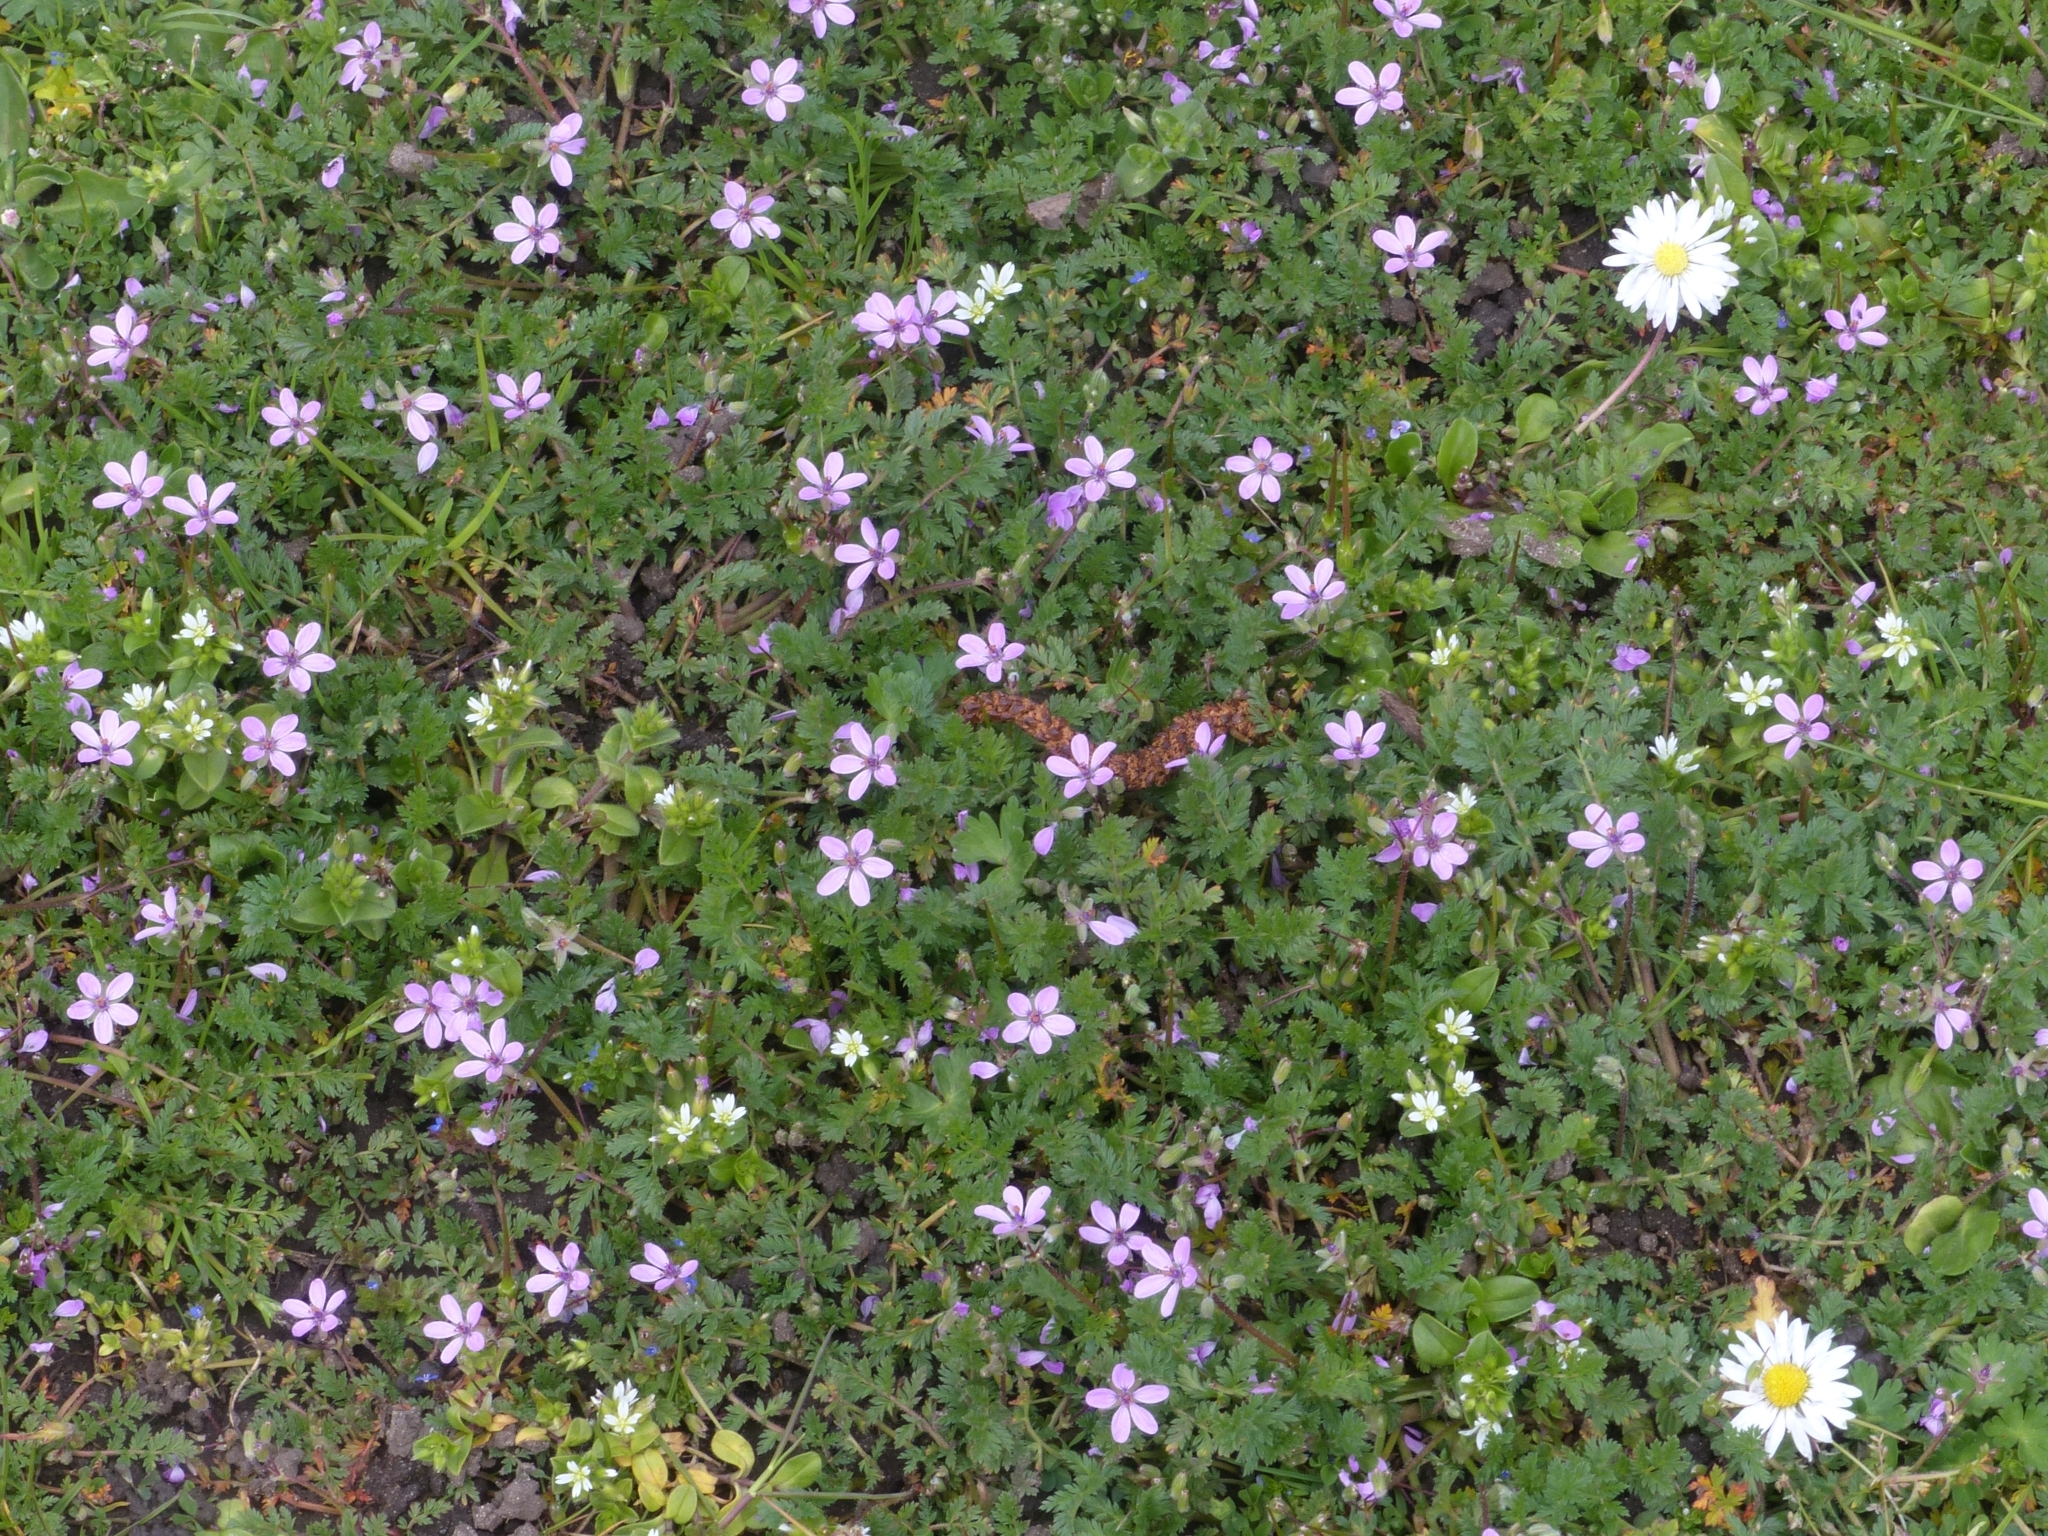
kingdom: Plantae
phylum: Tracheophyta
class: Magnoliopsida
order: Geraniales
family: Geraniaceae
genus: Erodium
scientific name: Erodium cicutarium
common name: Common stork's-bill
